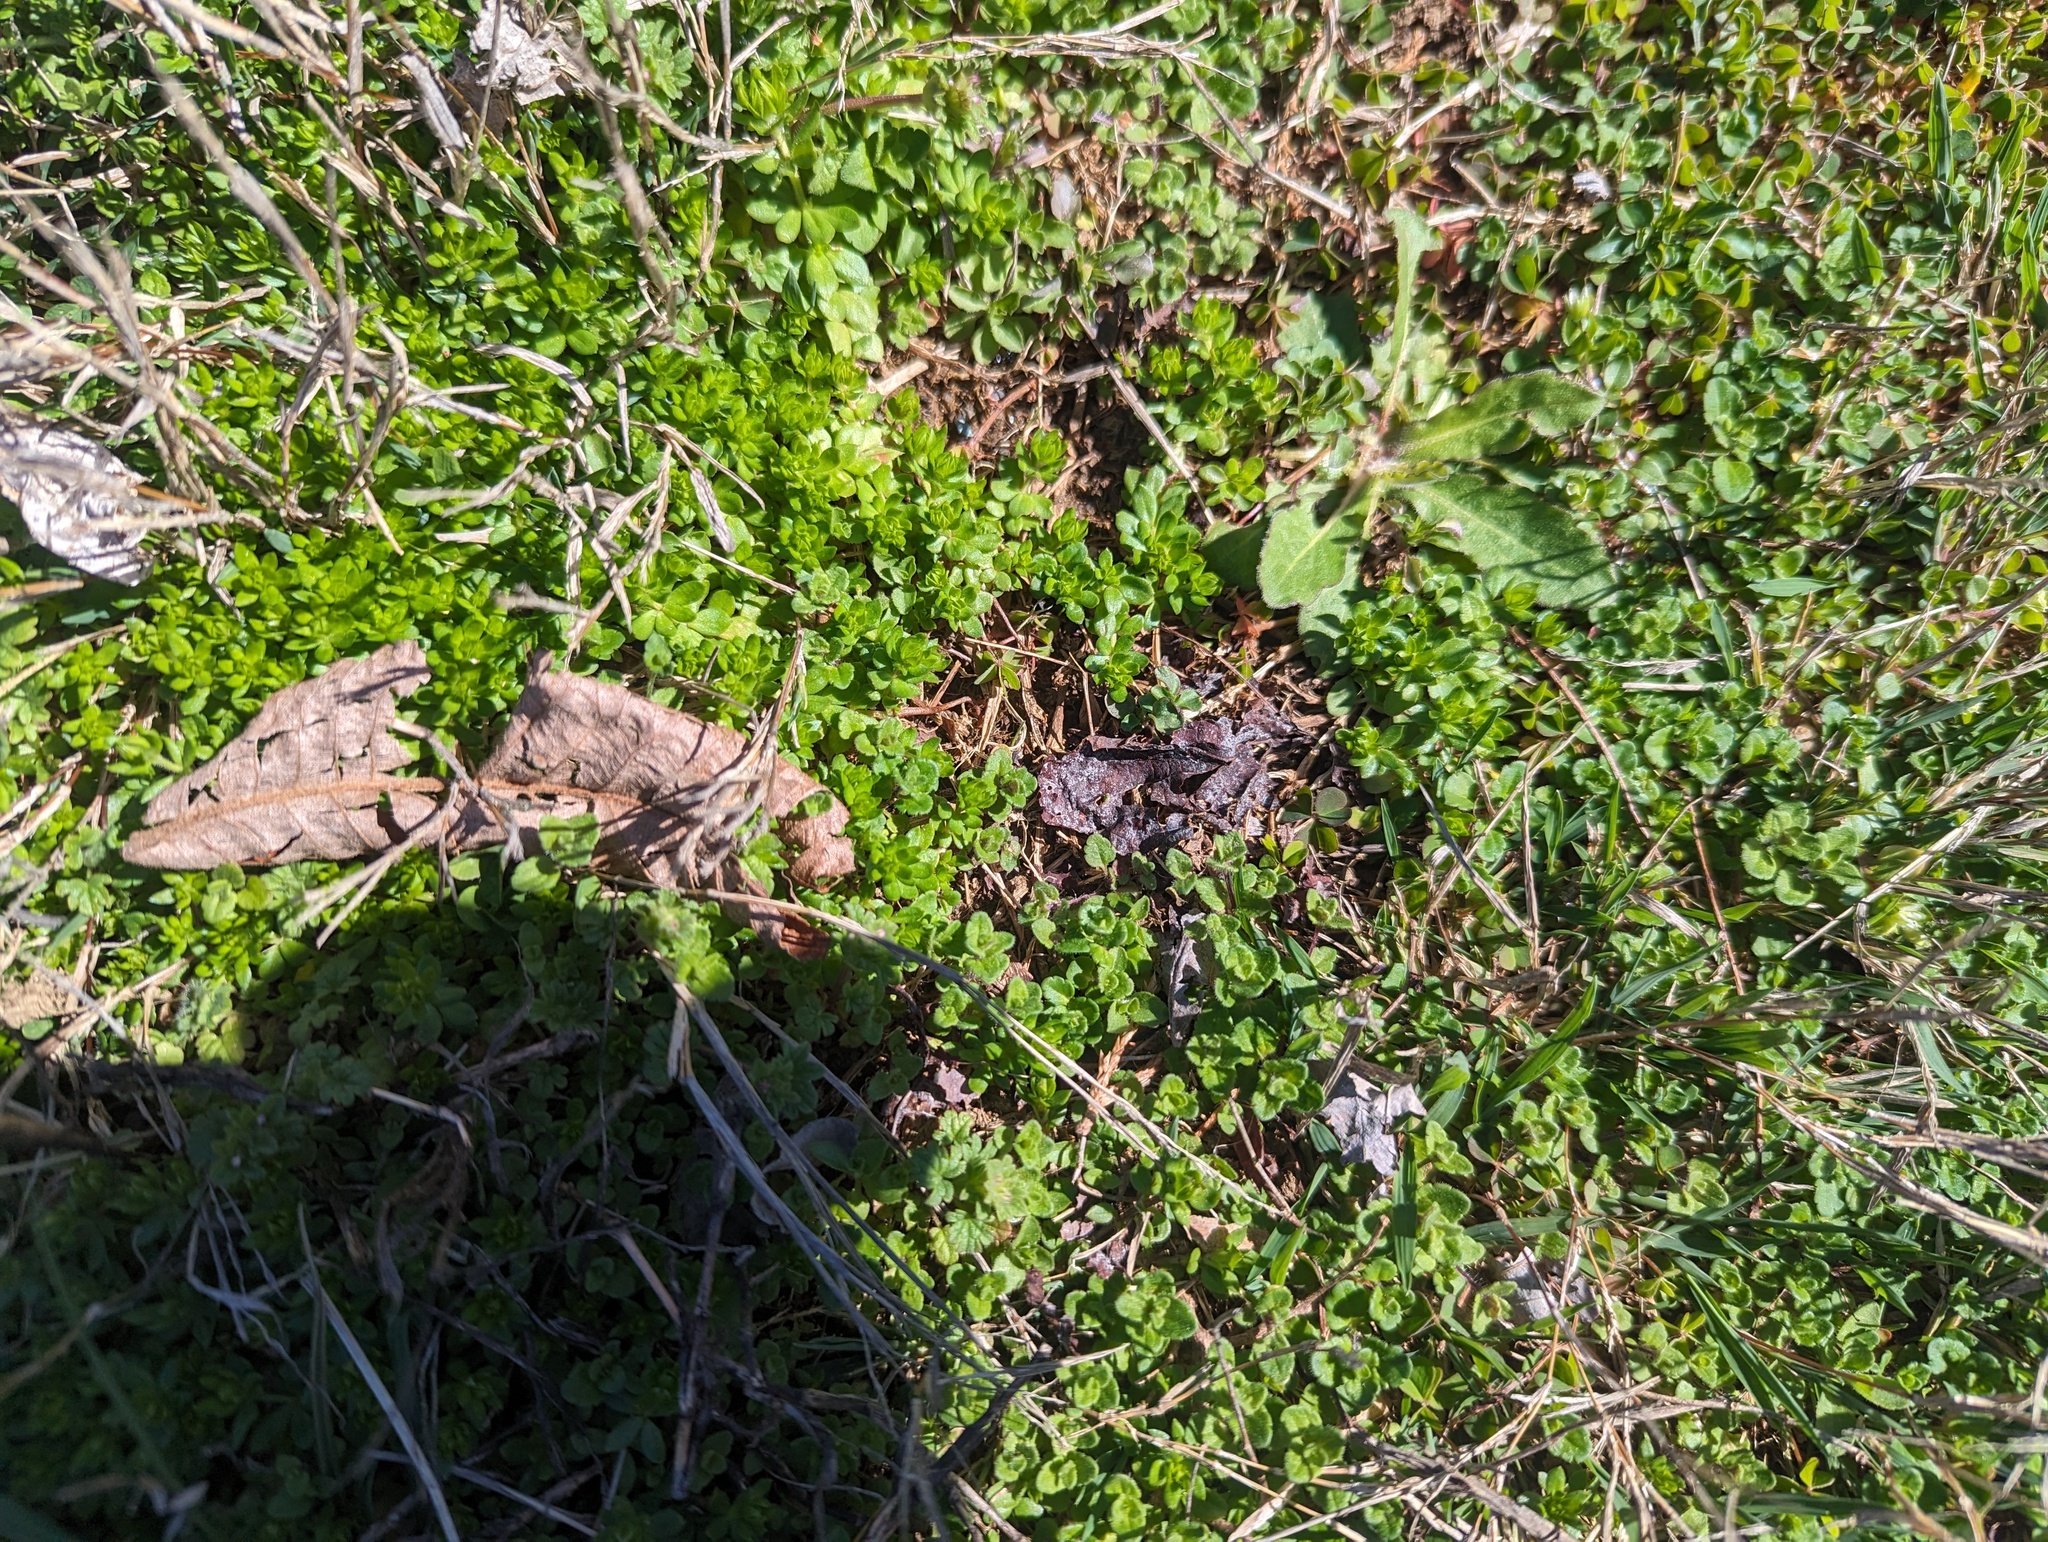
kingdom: Plantae
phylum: Tracheophyta
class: Magnoliopsida
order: Gentianales
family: Rubiaceae
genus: Sherardia
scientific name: Sherardia arvensis
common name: Field madder
